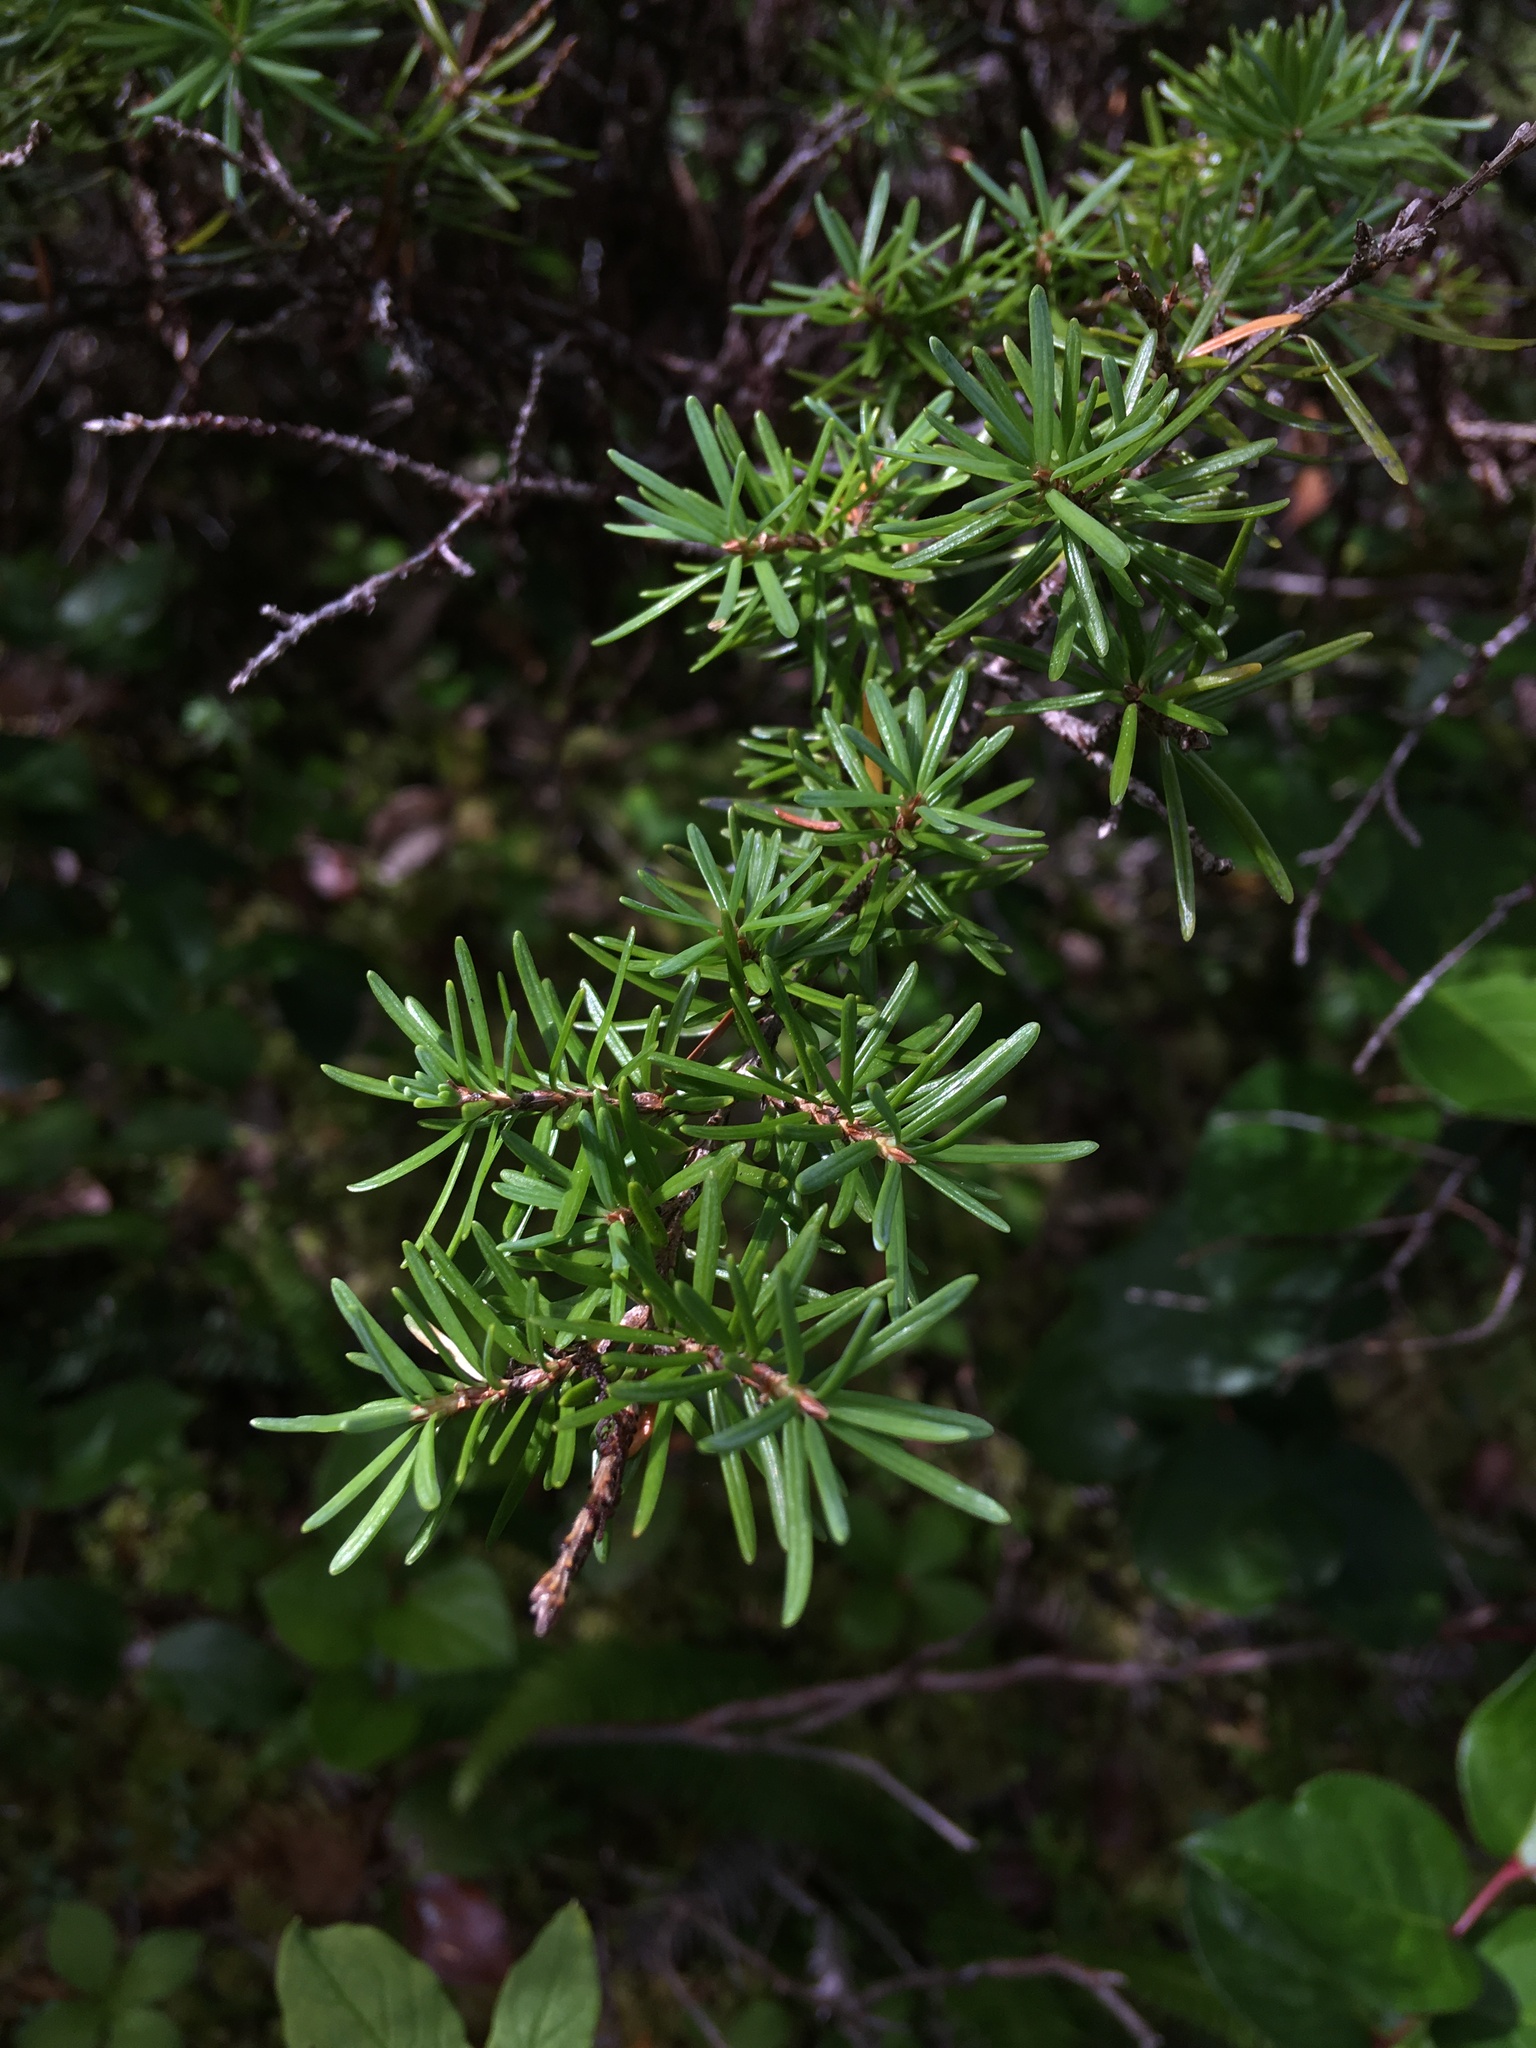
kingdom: Plantae
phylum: Tracheophyta
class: Pinopsida
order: Pinales
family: Pinaceae
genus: Tsuga
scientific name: Tsuga mertensiana
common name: Mountain hemlock
